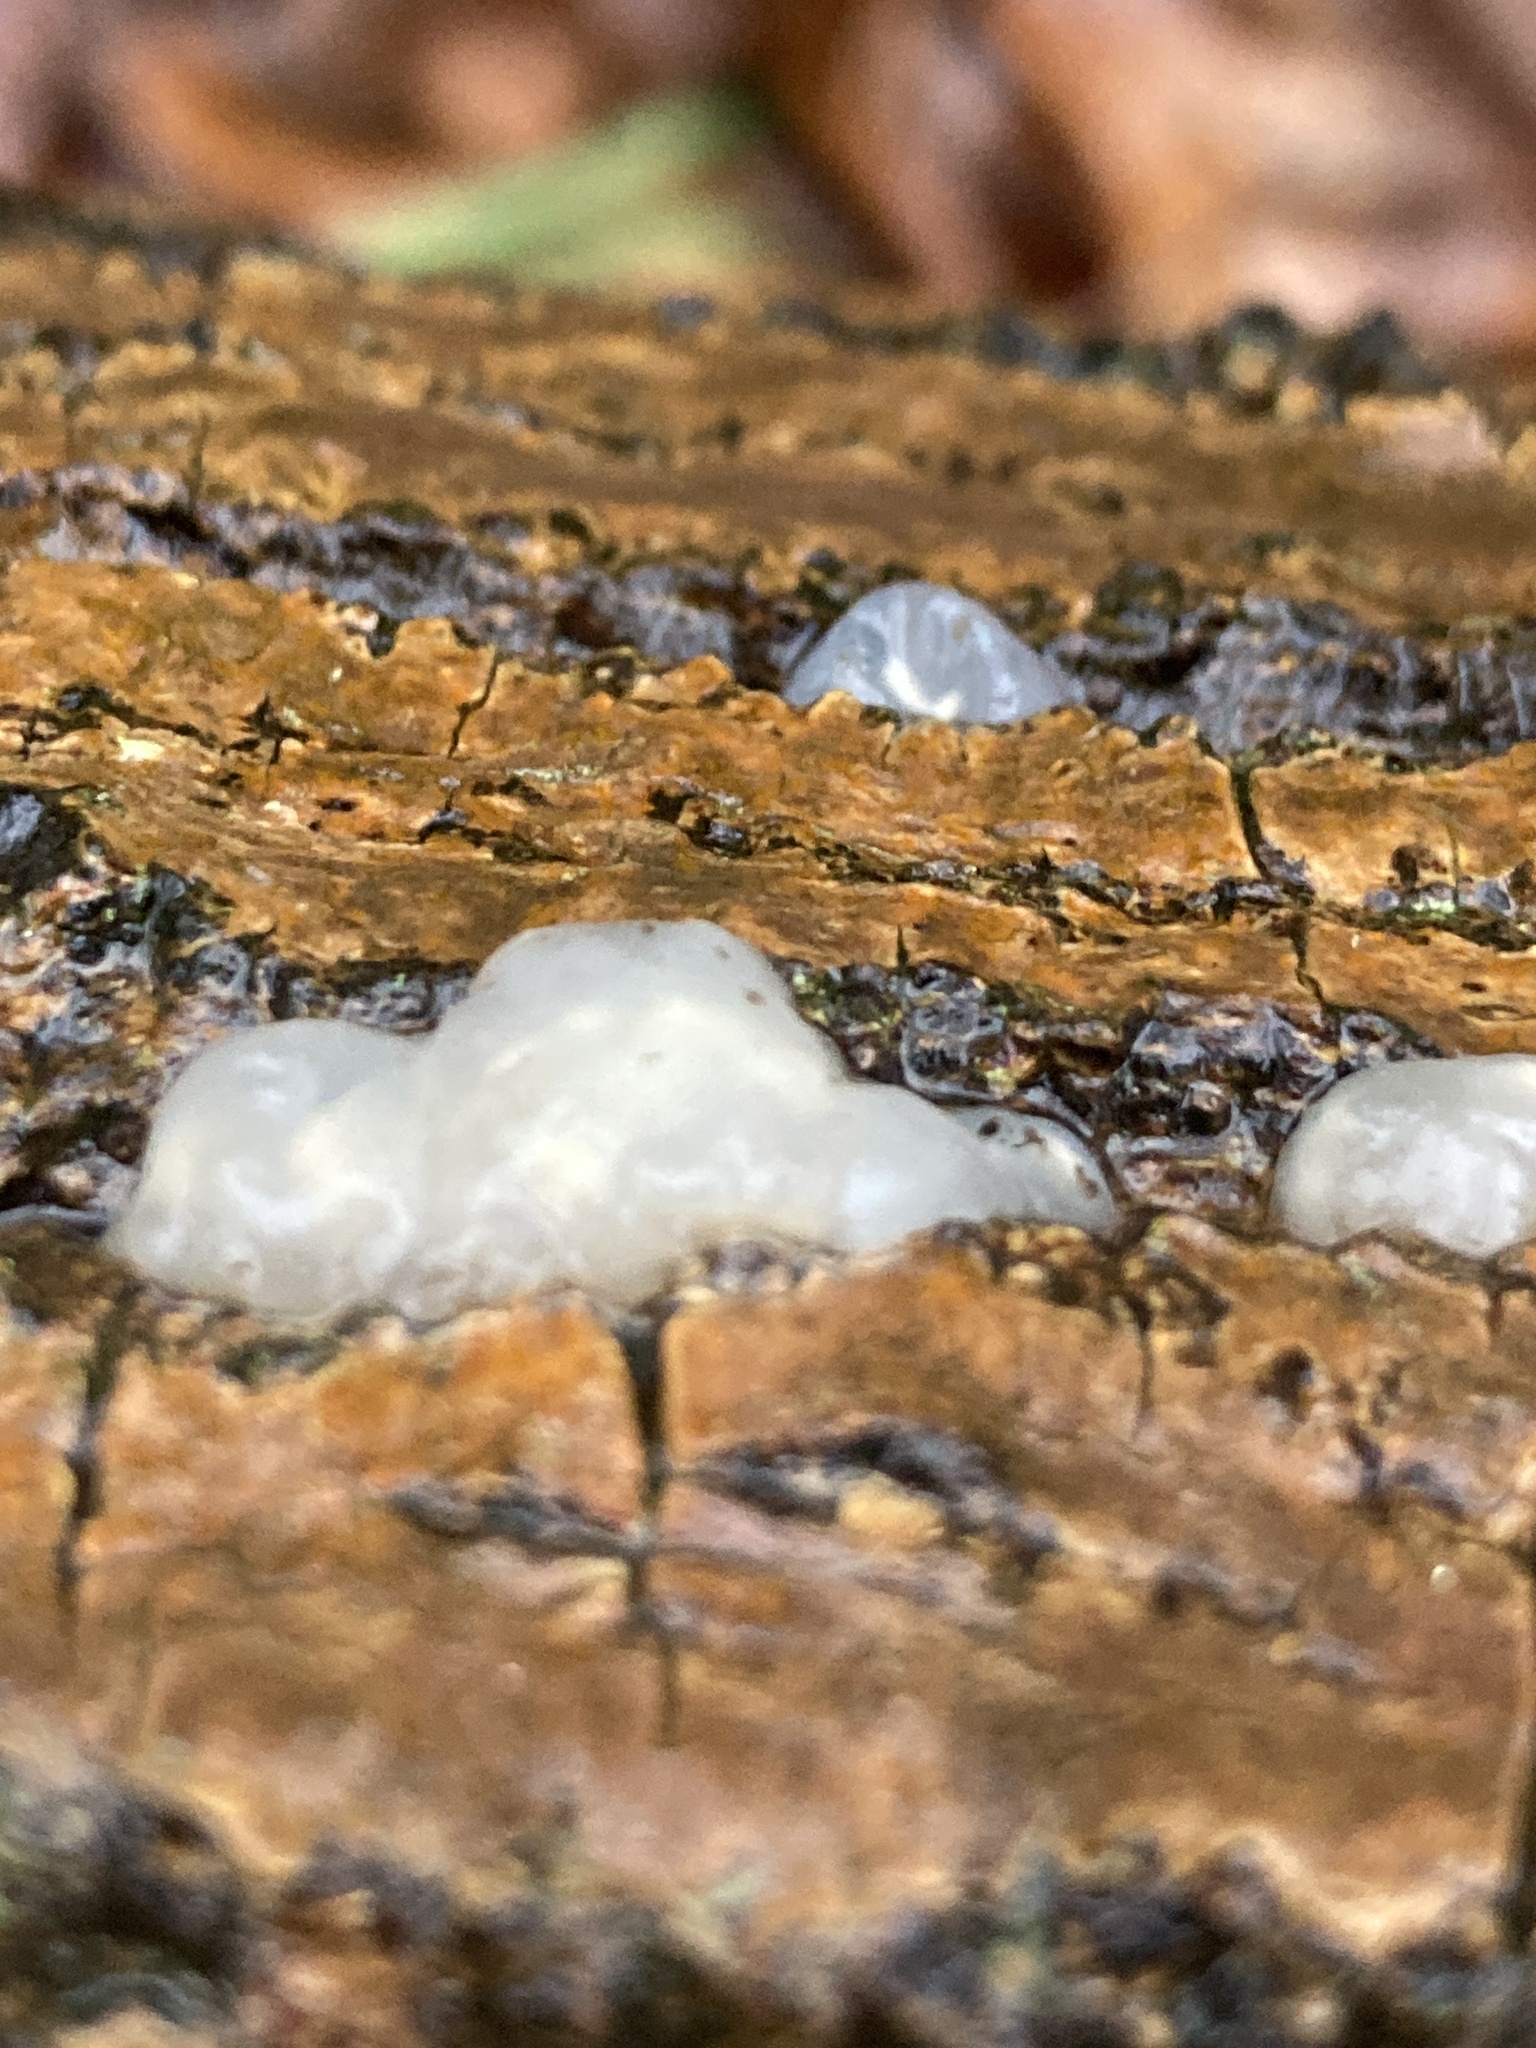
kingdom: Fungi
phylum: Basidiomycota
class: Agaricomycetes
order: Auriculariales
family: Hyaloriaceae
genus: Myxarium
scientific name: Myxarium nucleatum
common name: Crystal brain fungus
